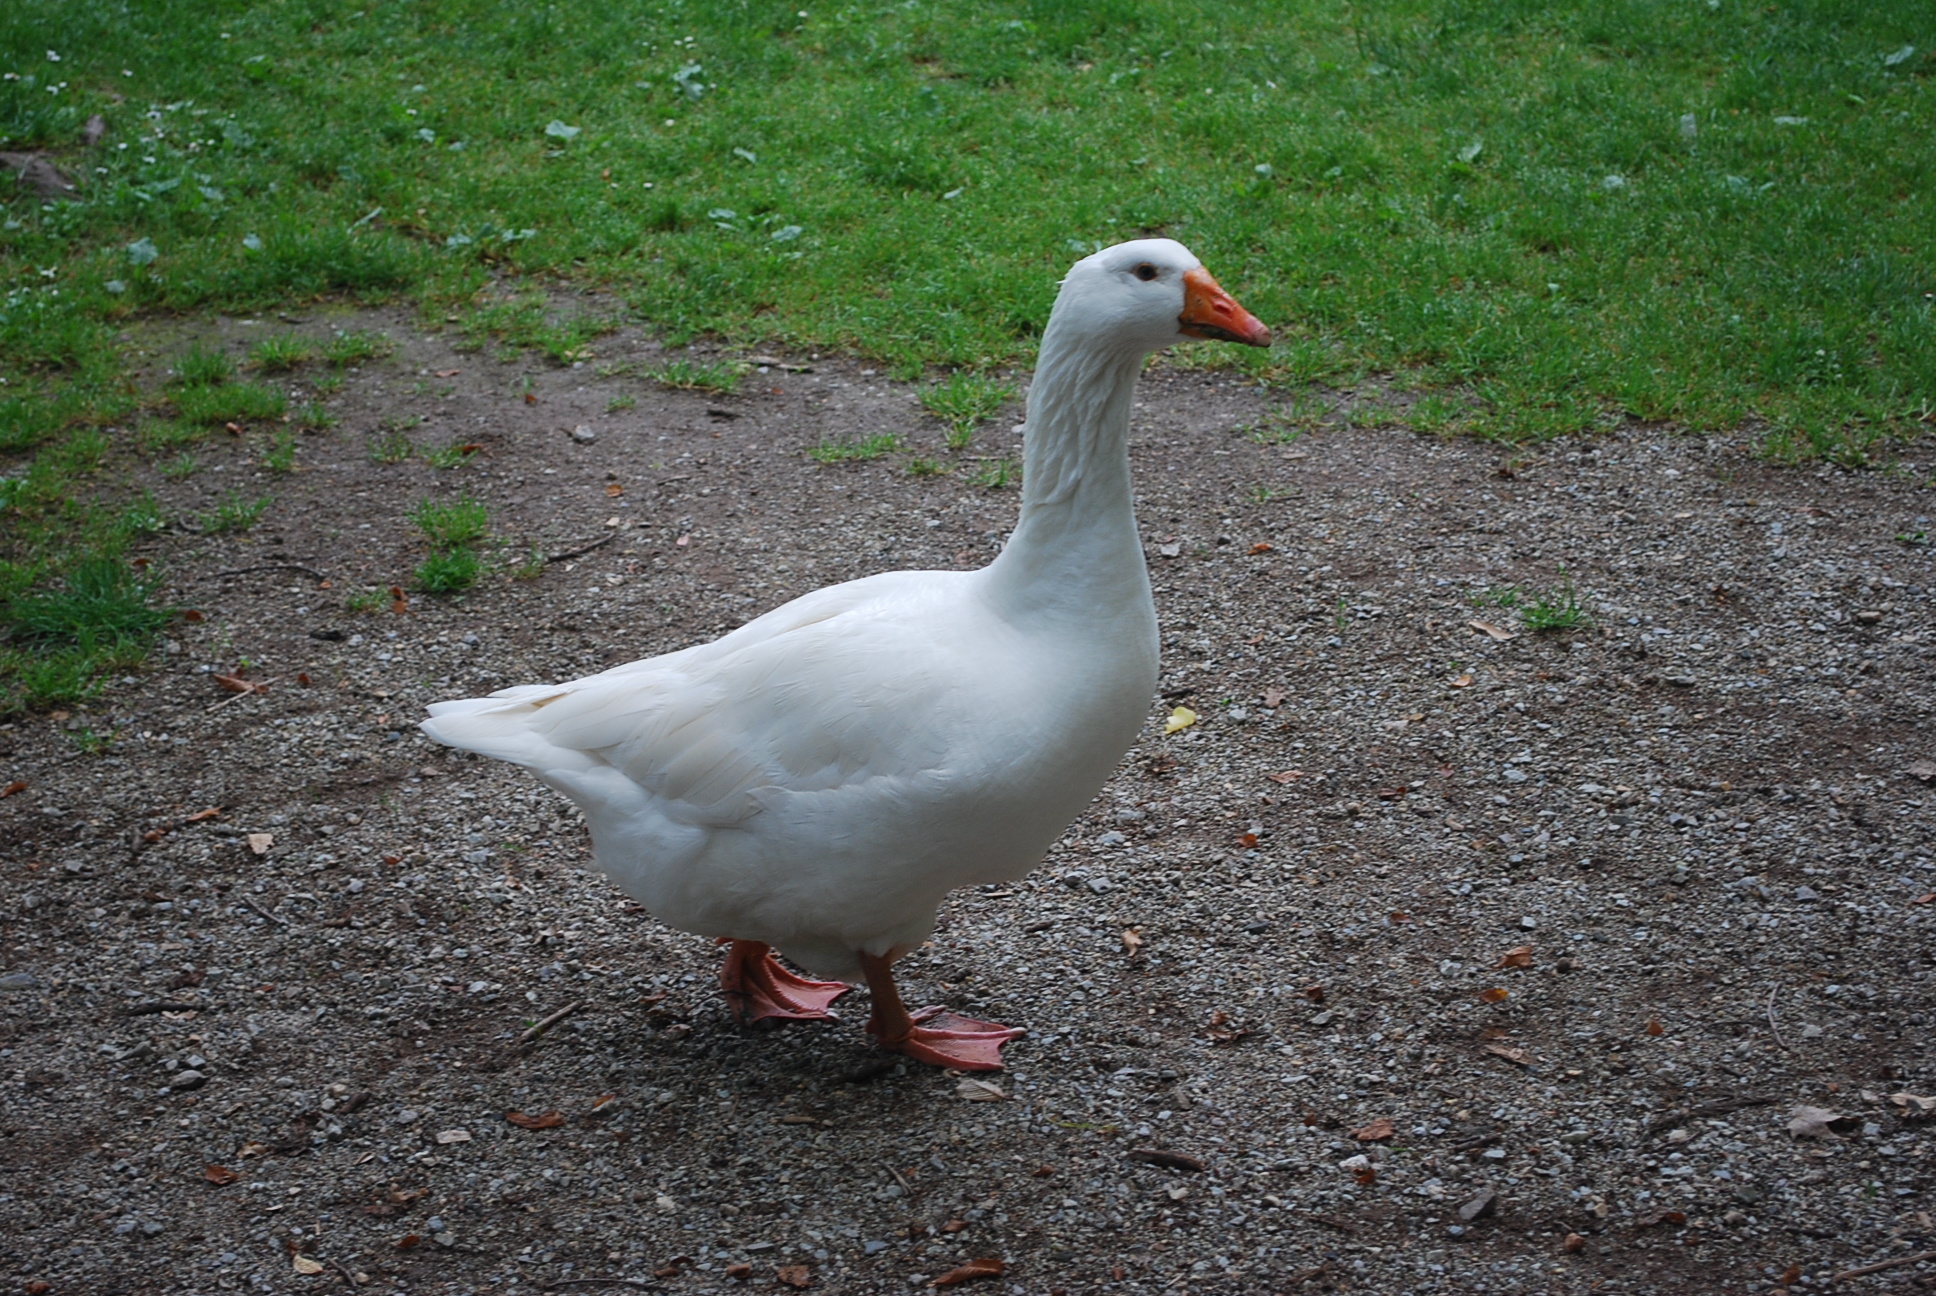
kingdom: Animalia
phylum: Chordata
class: Aves
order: Anseriformes
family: Anatidae
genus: Anser
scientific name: Anser anser
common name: Greylag goose
